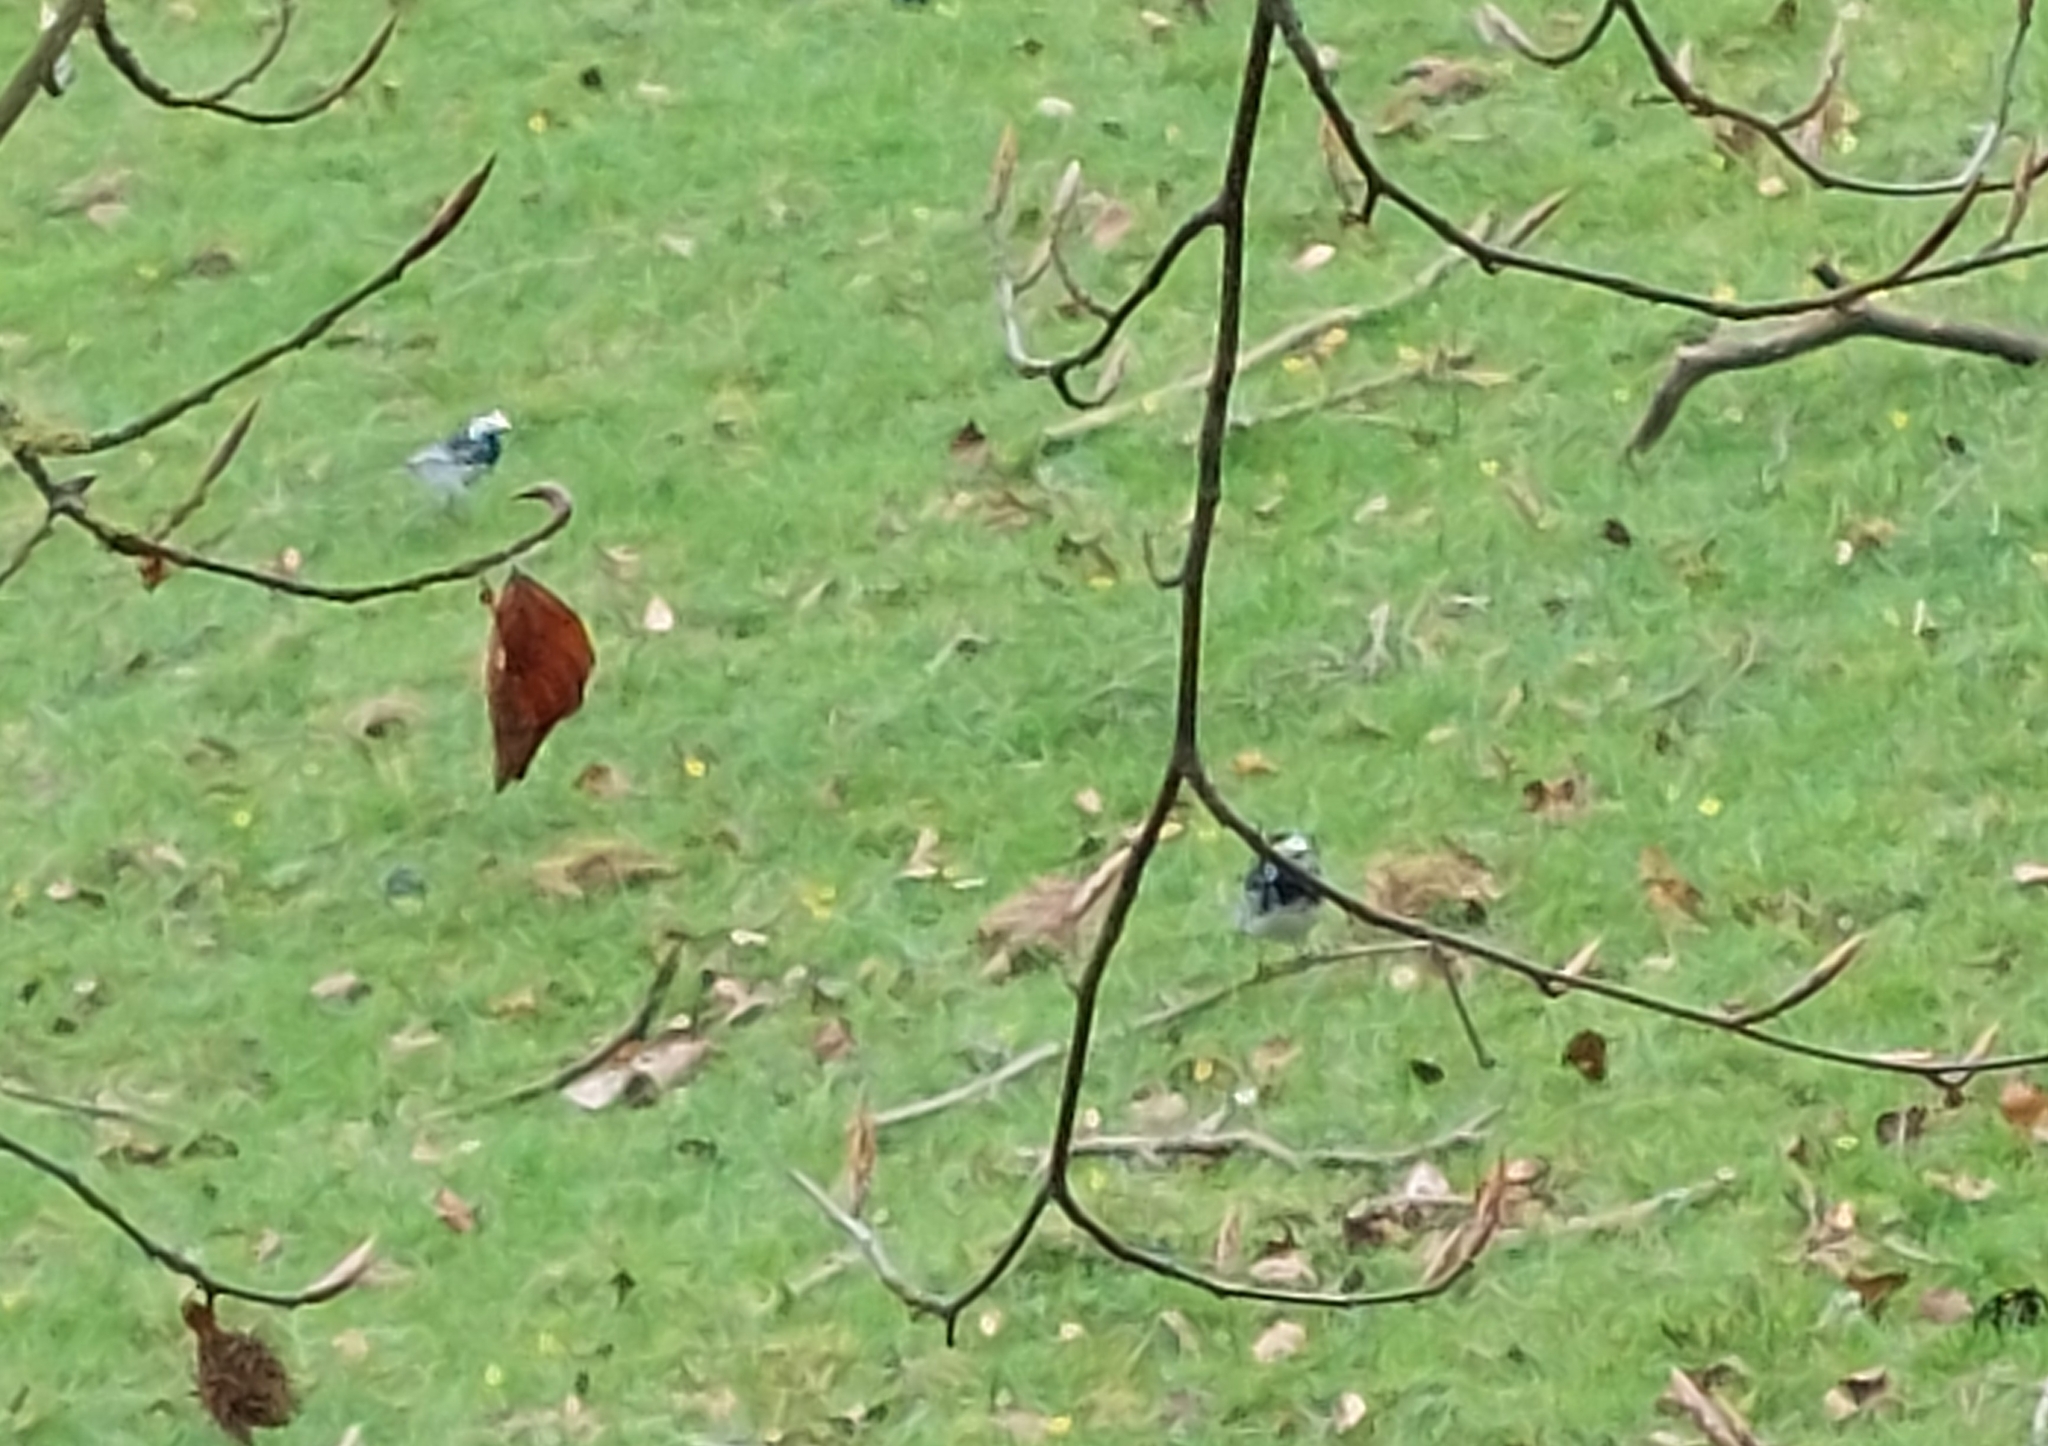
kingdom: Animalia
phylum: Chordata
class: Aves
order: Passeriformes
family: Motacillidae
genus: Motacilla
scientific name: Motacilla alba
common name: White wagtail
